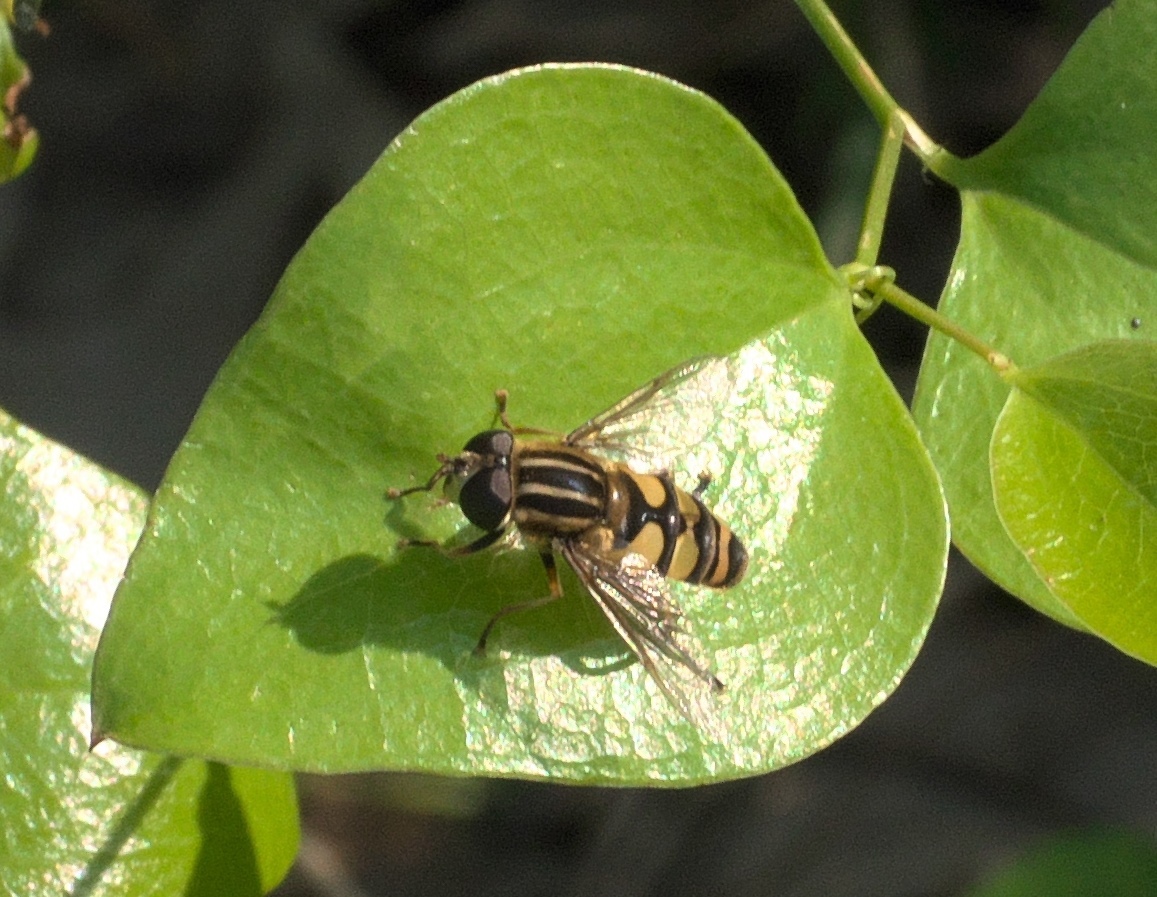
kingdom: Animalia
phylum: Arthropoda
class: Insecta
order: Diptera
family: Syrphidae
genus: Helophilus
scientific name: Helophilus fasciatus
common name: Narrow-headed marsh fly
